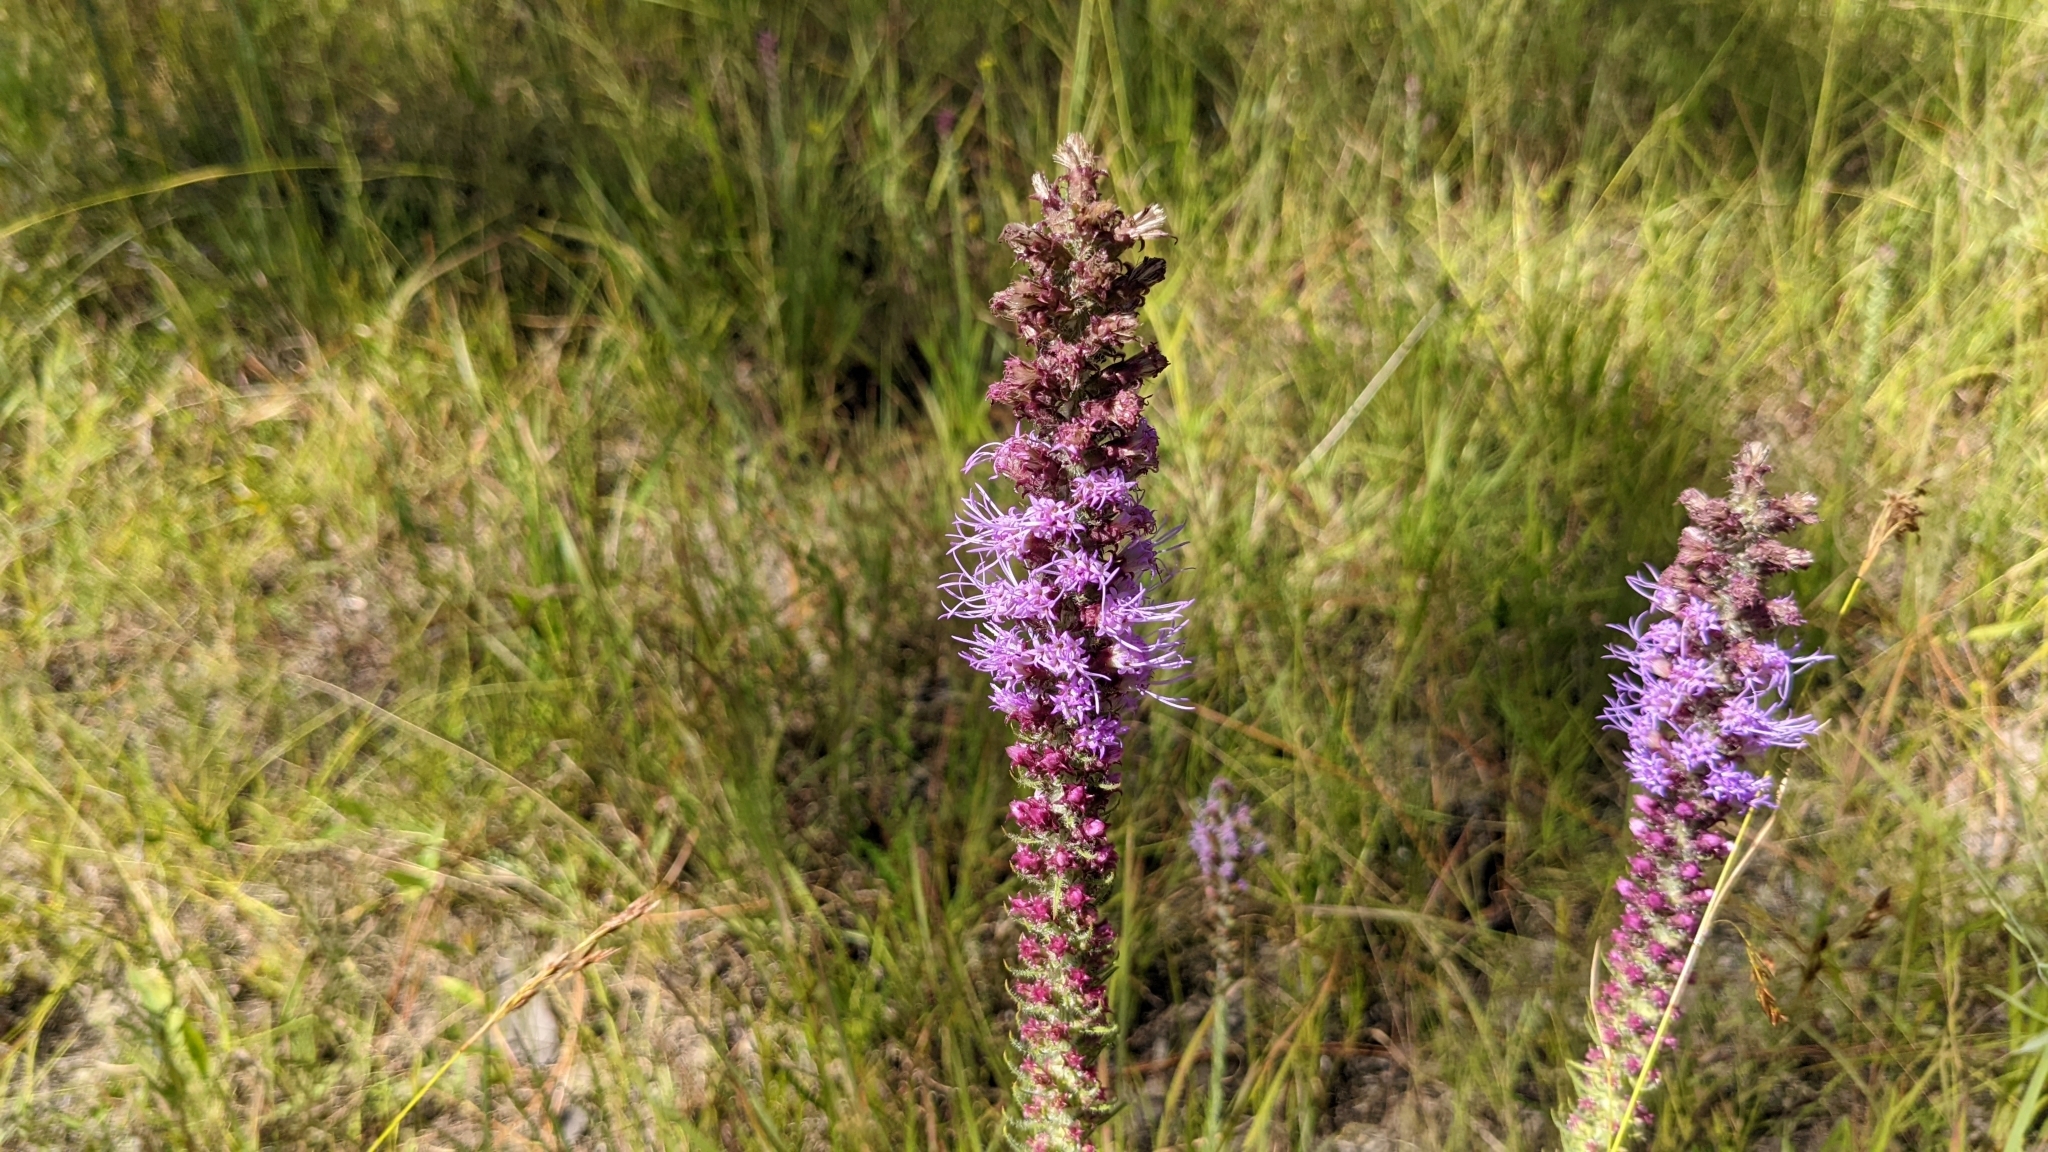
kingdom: Plantae
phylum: Tracheophyta
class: Magnoliopsida
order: Asterales
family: Asteraceae
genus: Liatris
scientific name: Liatris pycnostachya
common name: Cattail gayfeather
